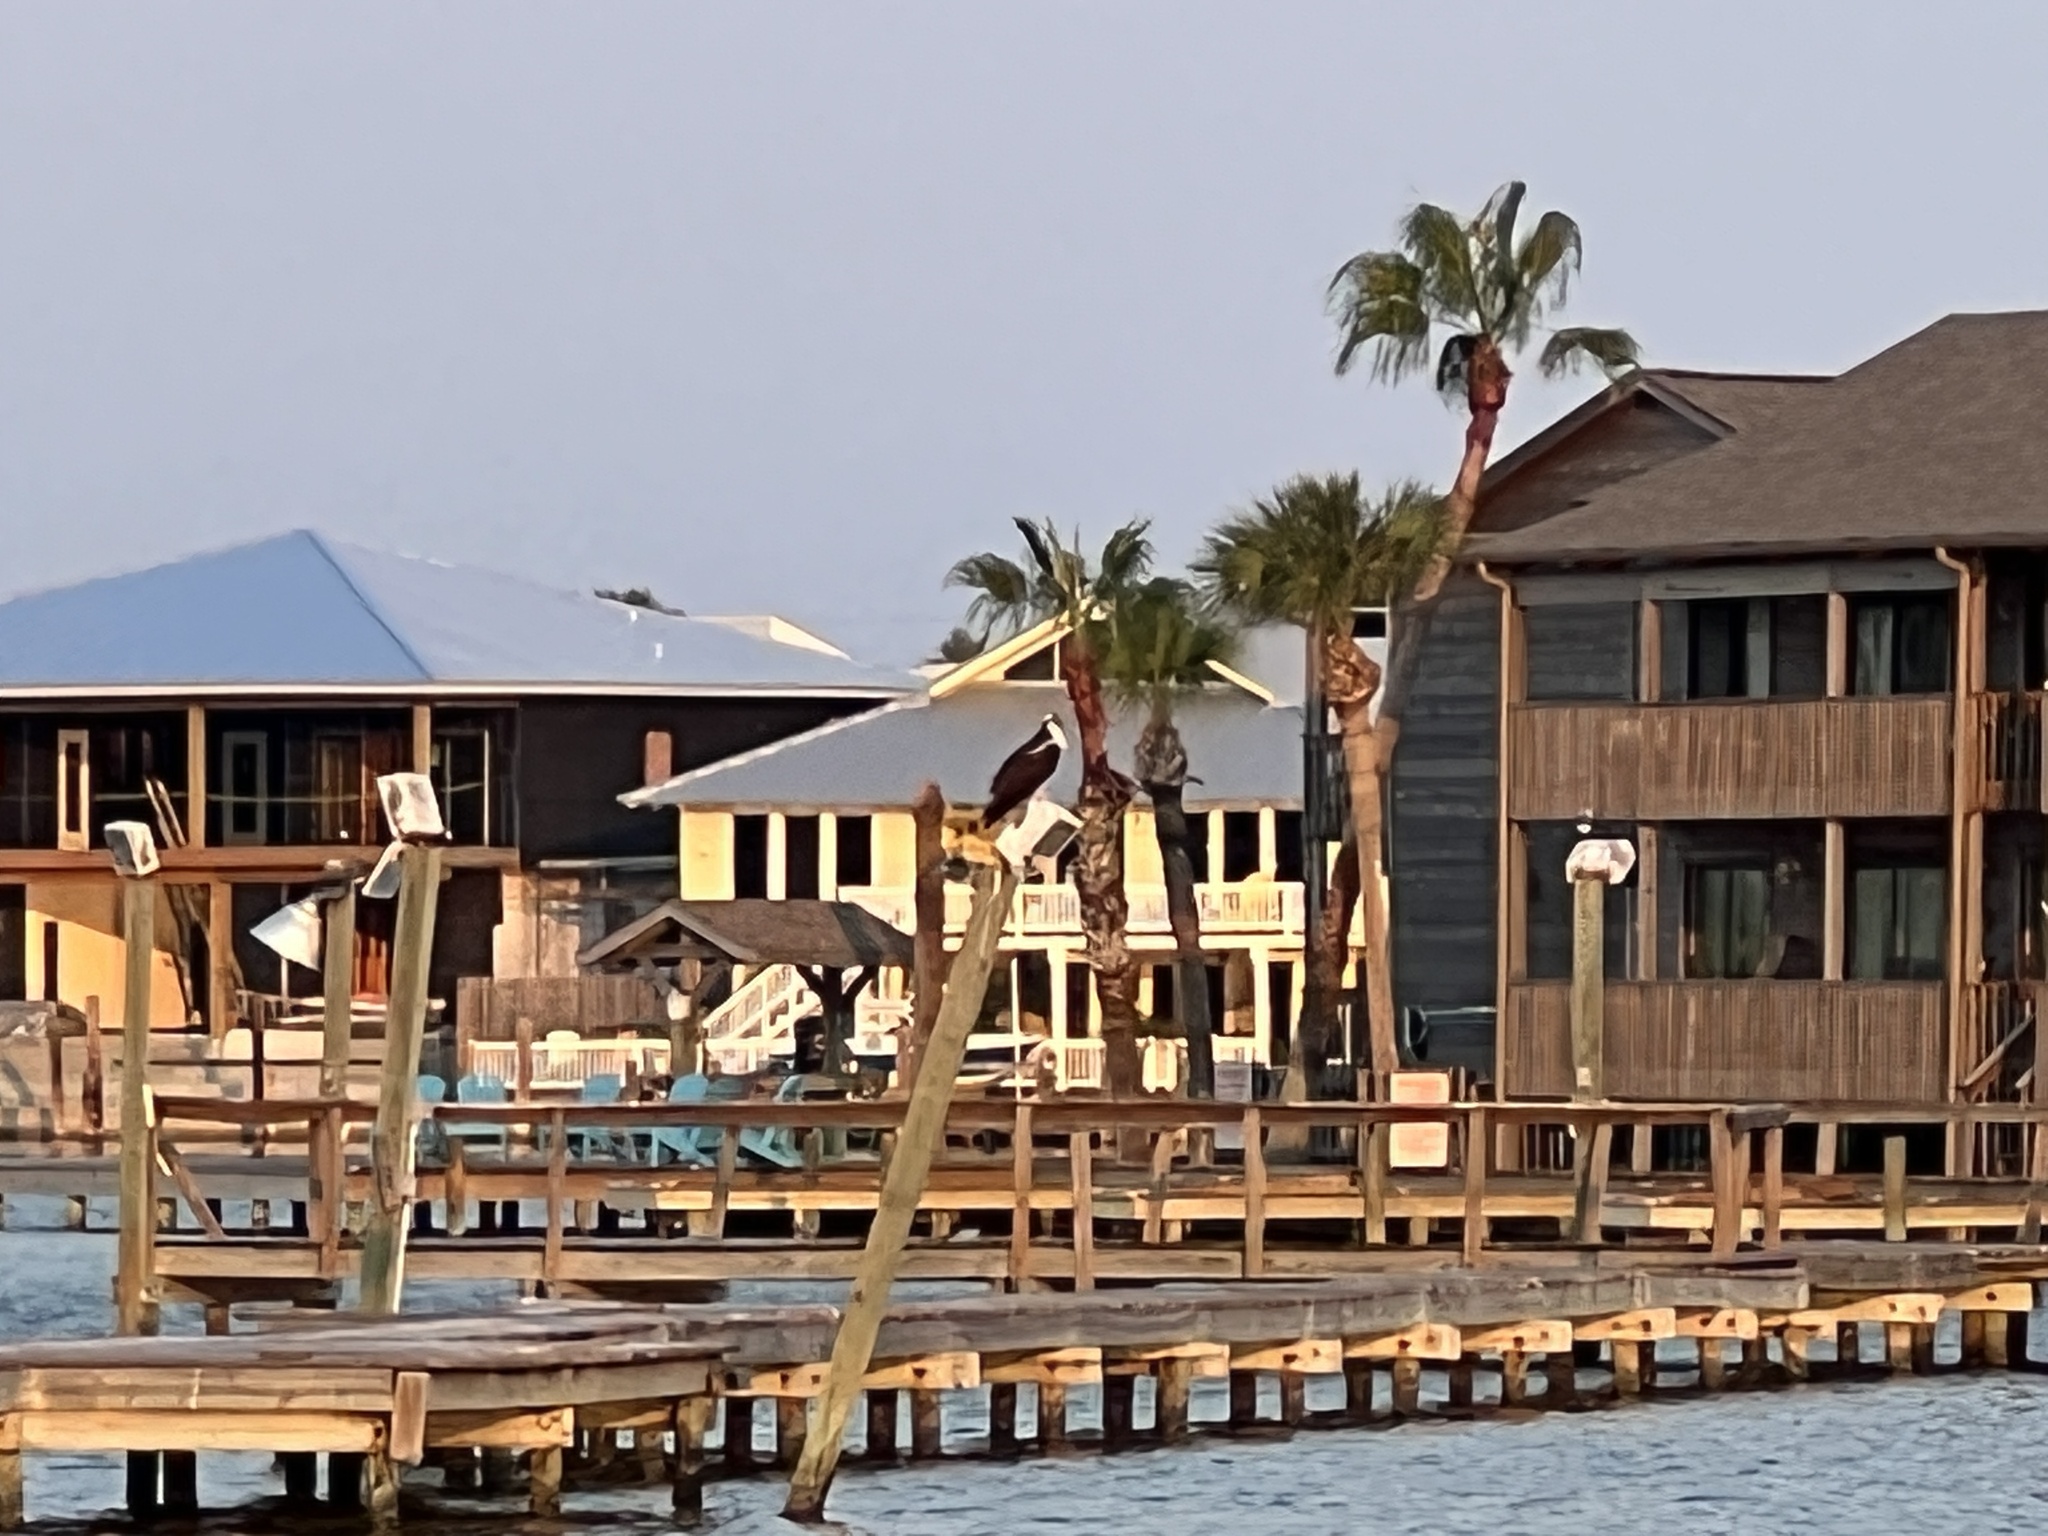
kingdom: Animalia
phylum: Chordata
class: Aves
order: Accipitriformes
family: Pandionidae
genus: Pandion
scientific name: Pandion haliaetus
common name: Osprey
